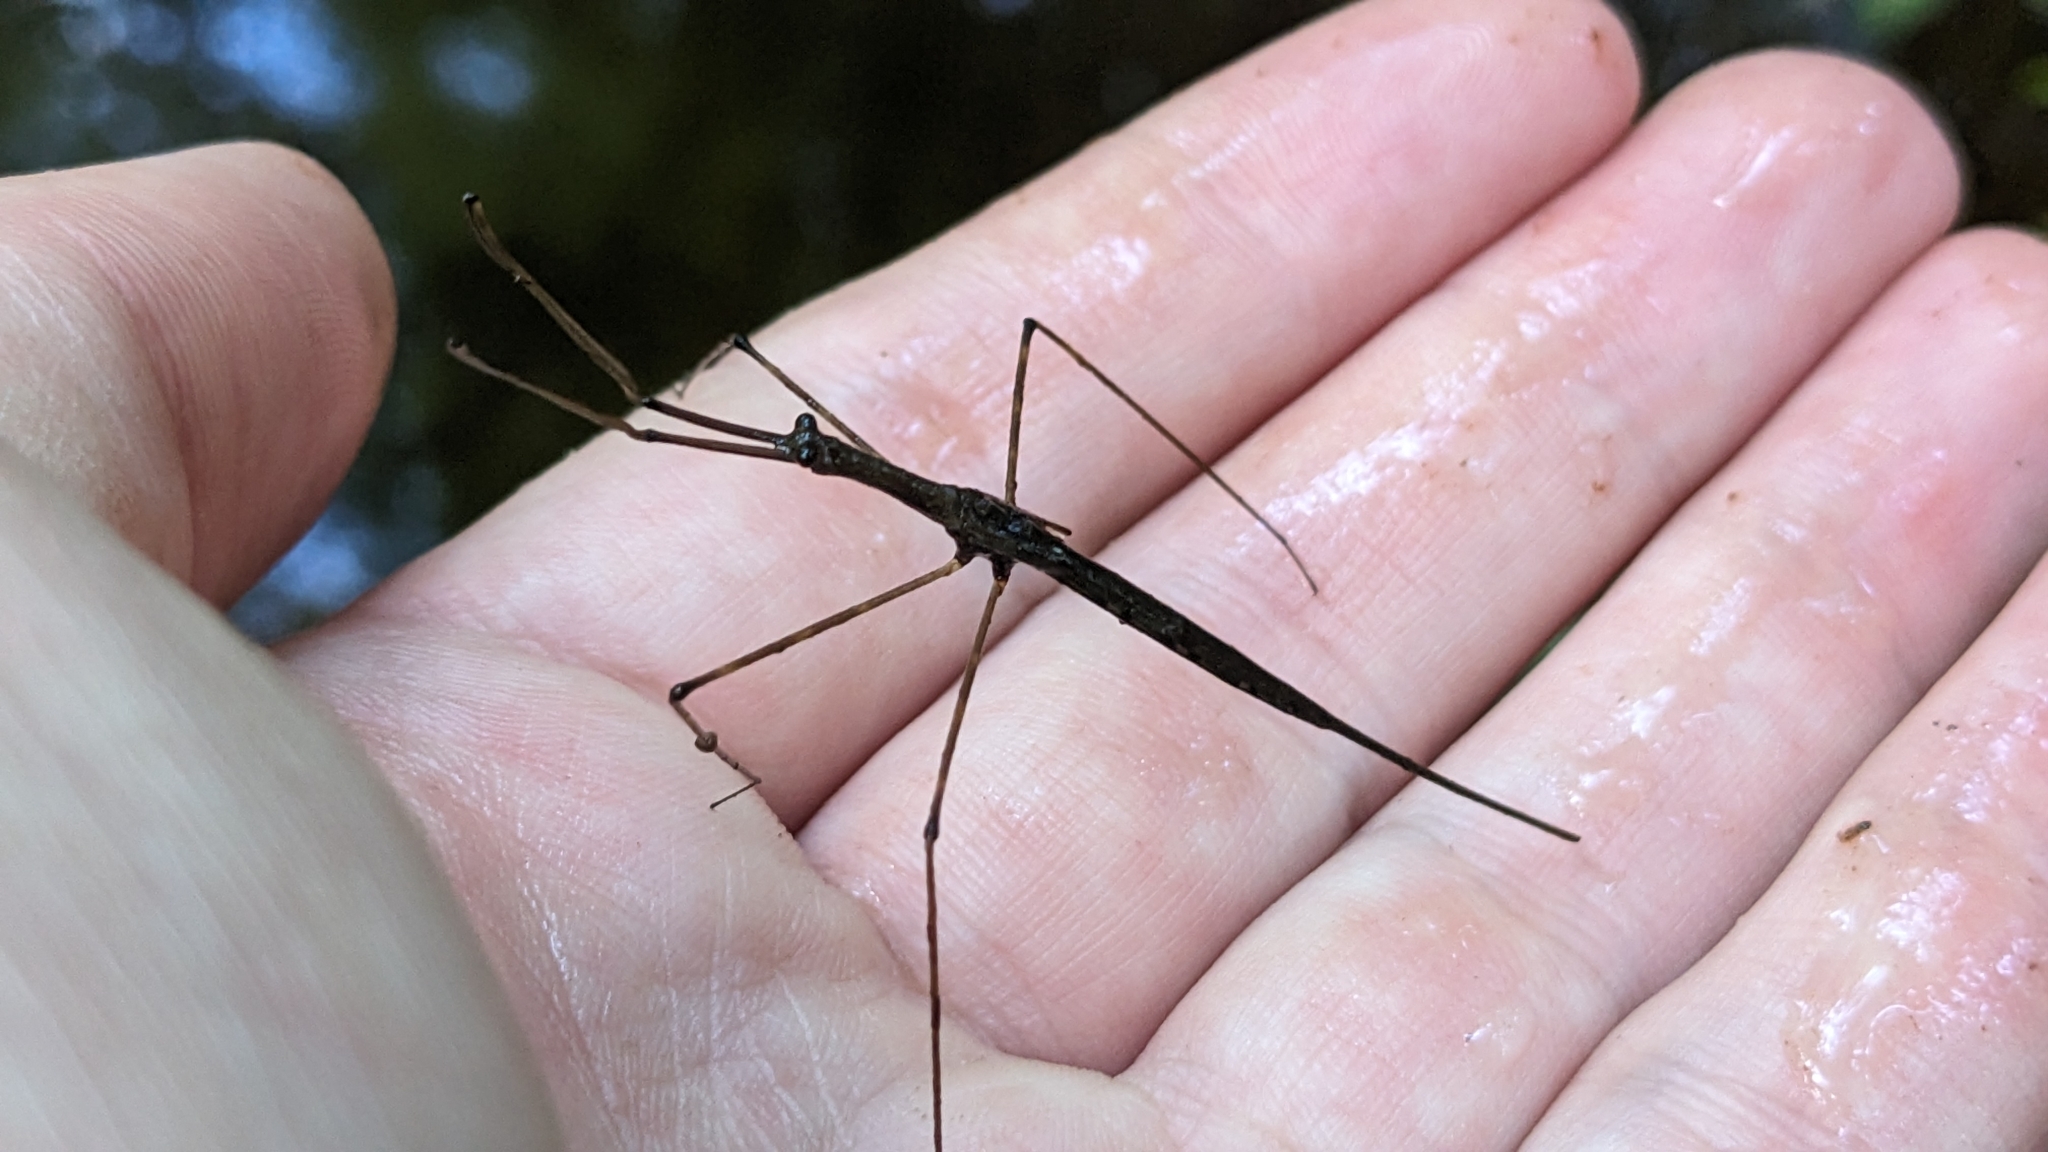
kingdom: Animalia
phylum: Arthropoda
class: Insecta
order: Hemiptera
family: Nepidae
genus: Ranatra
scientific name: Ranatra
